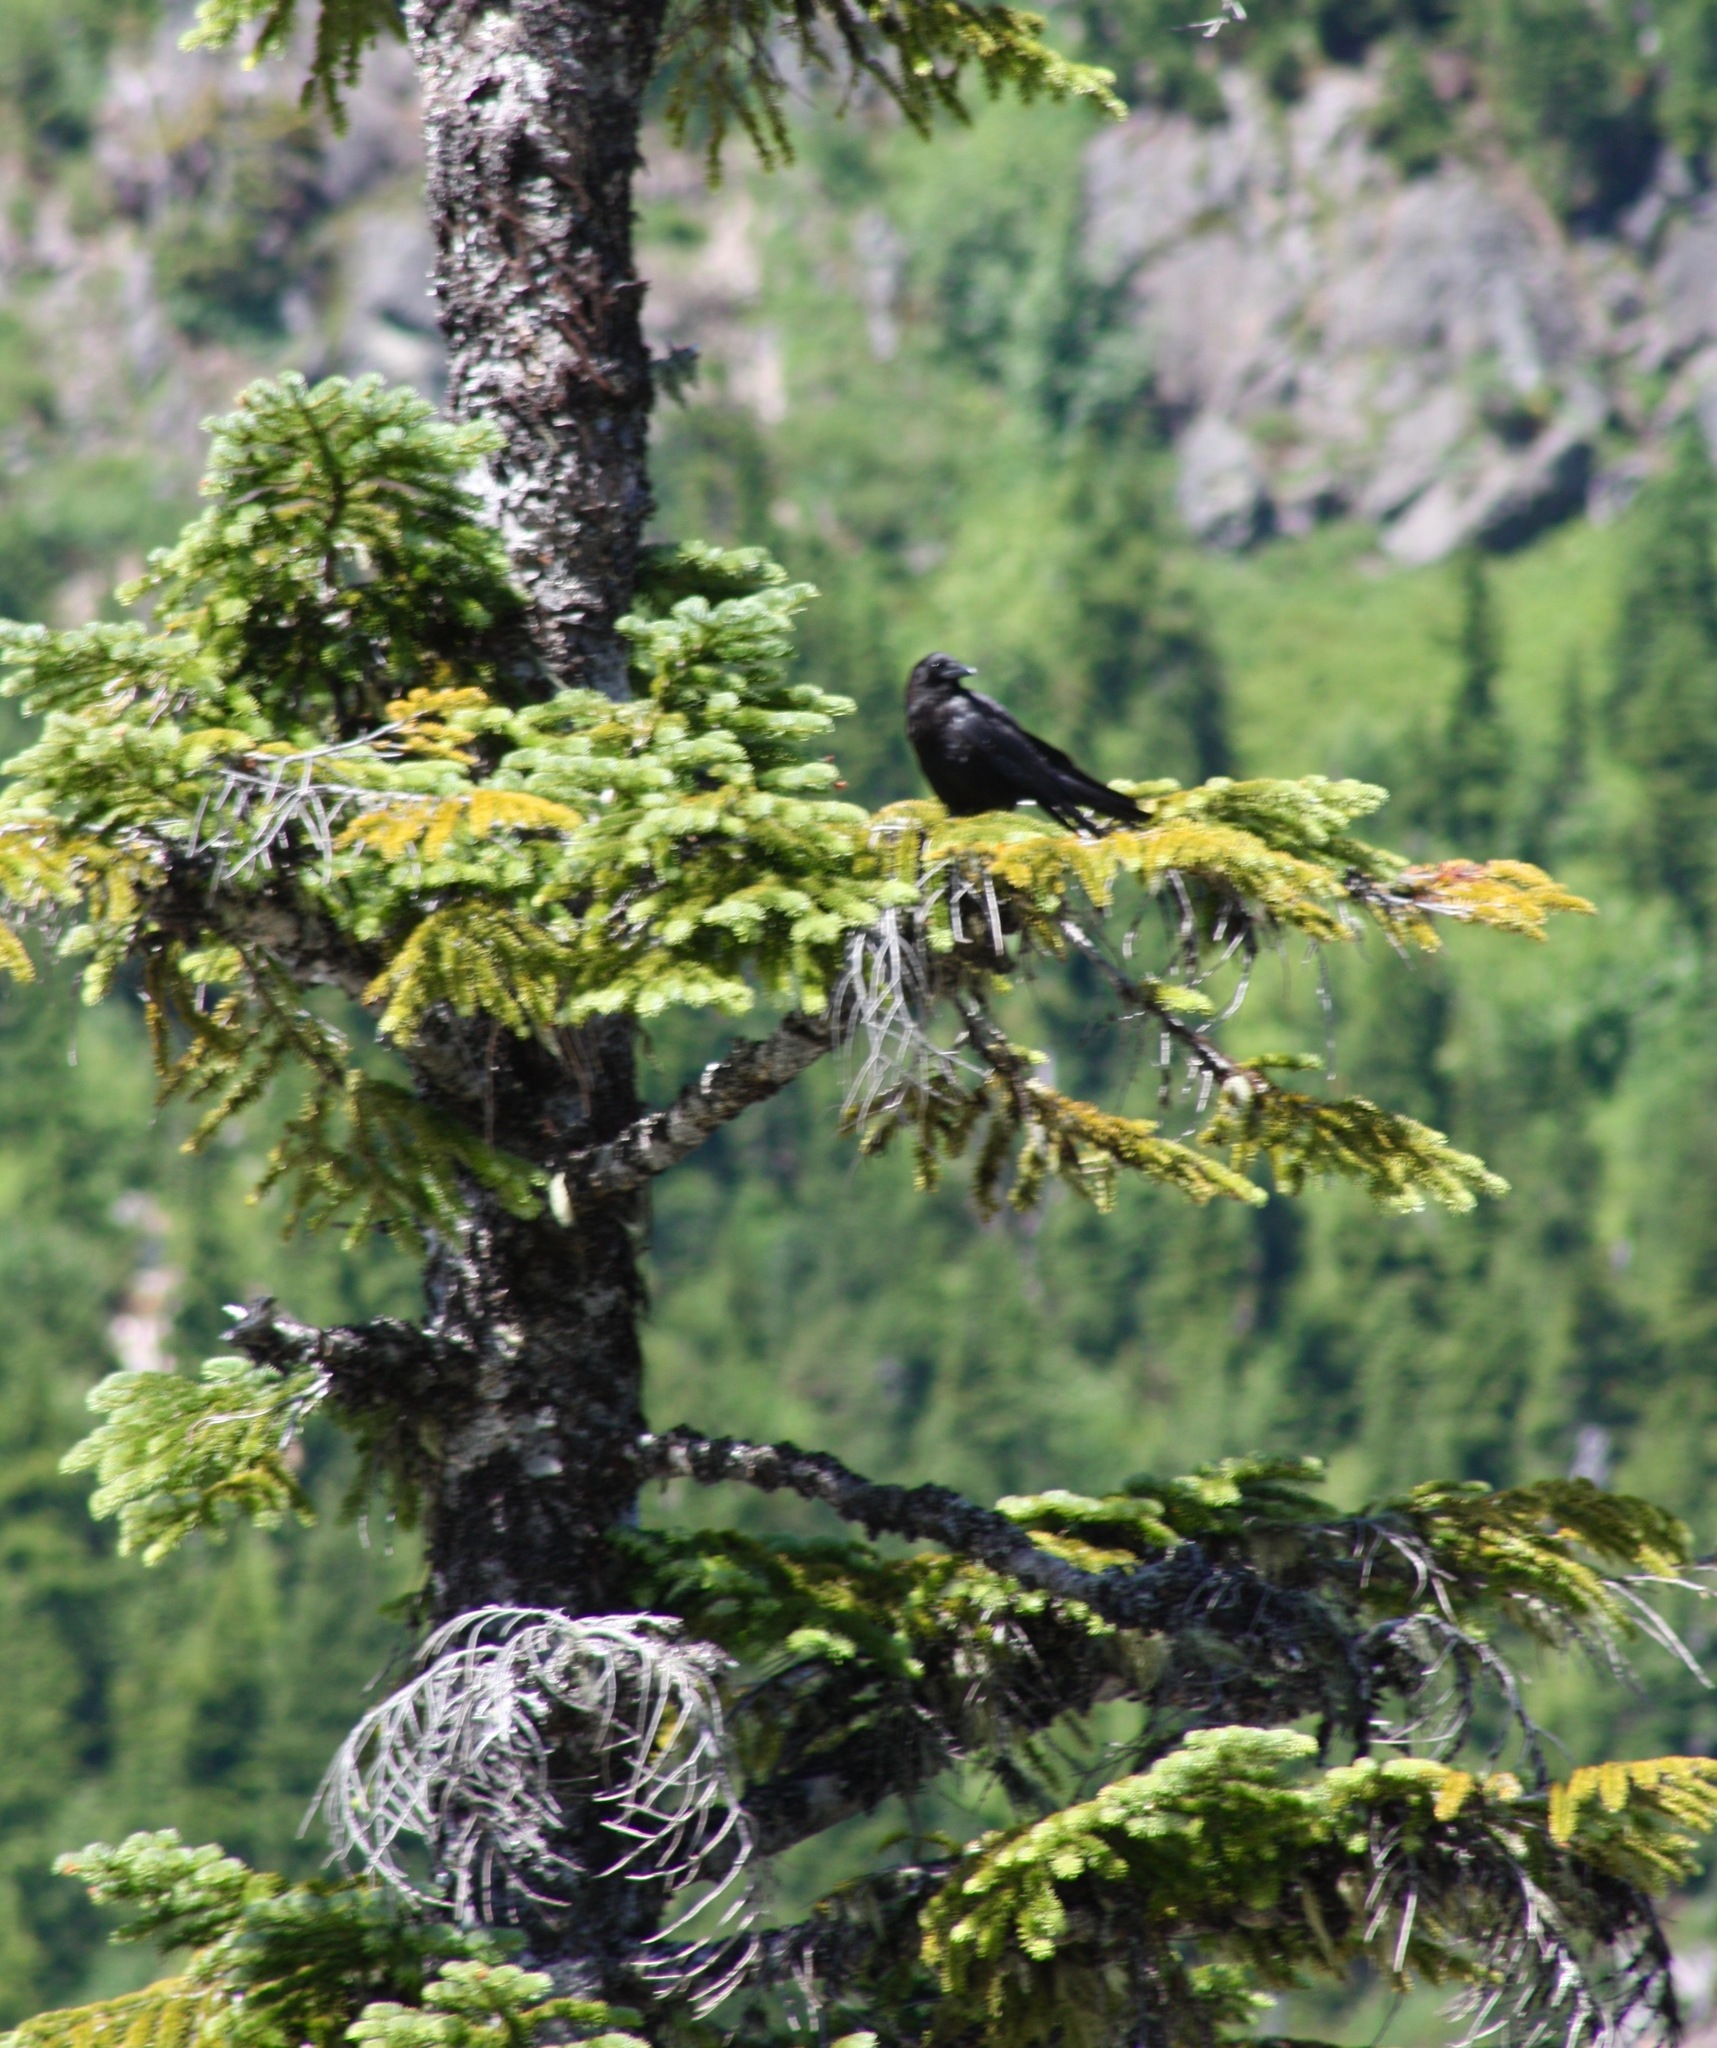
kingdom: Animalia
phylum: Chordata
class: Aves
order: Passeriformes
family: Corvidae
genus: Corvus
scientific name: Corvus brachyrhynchos
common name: American crow
